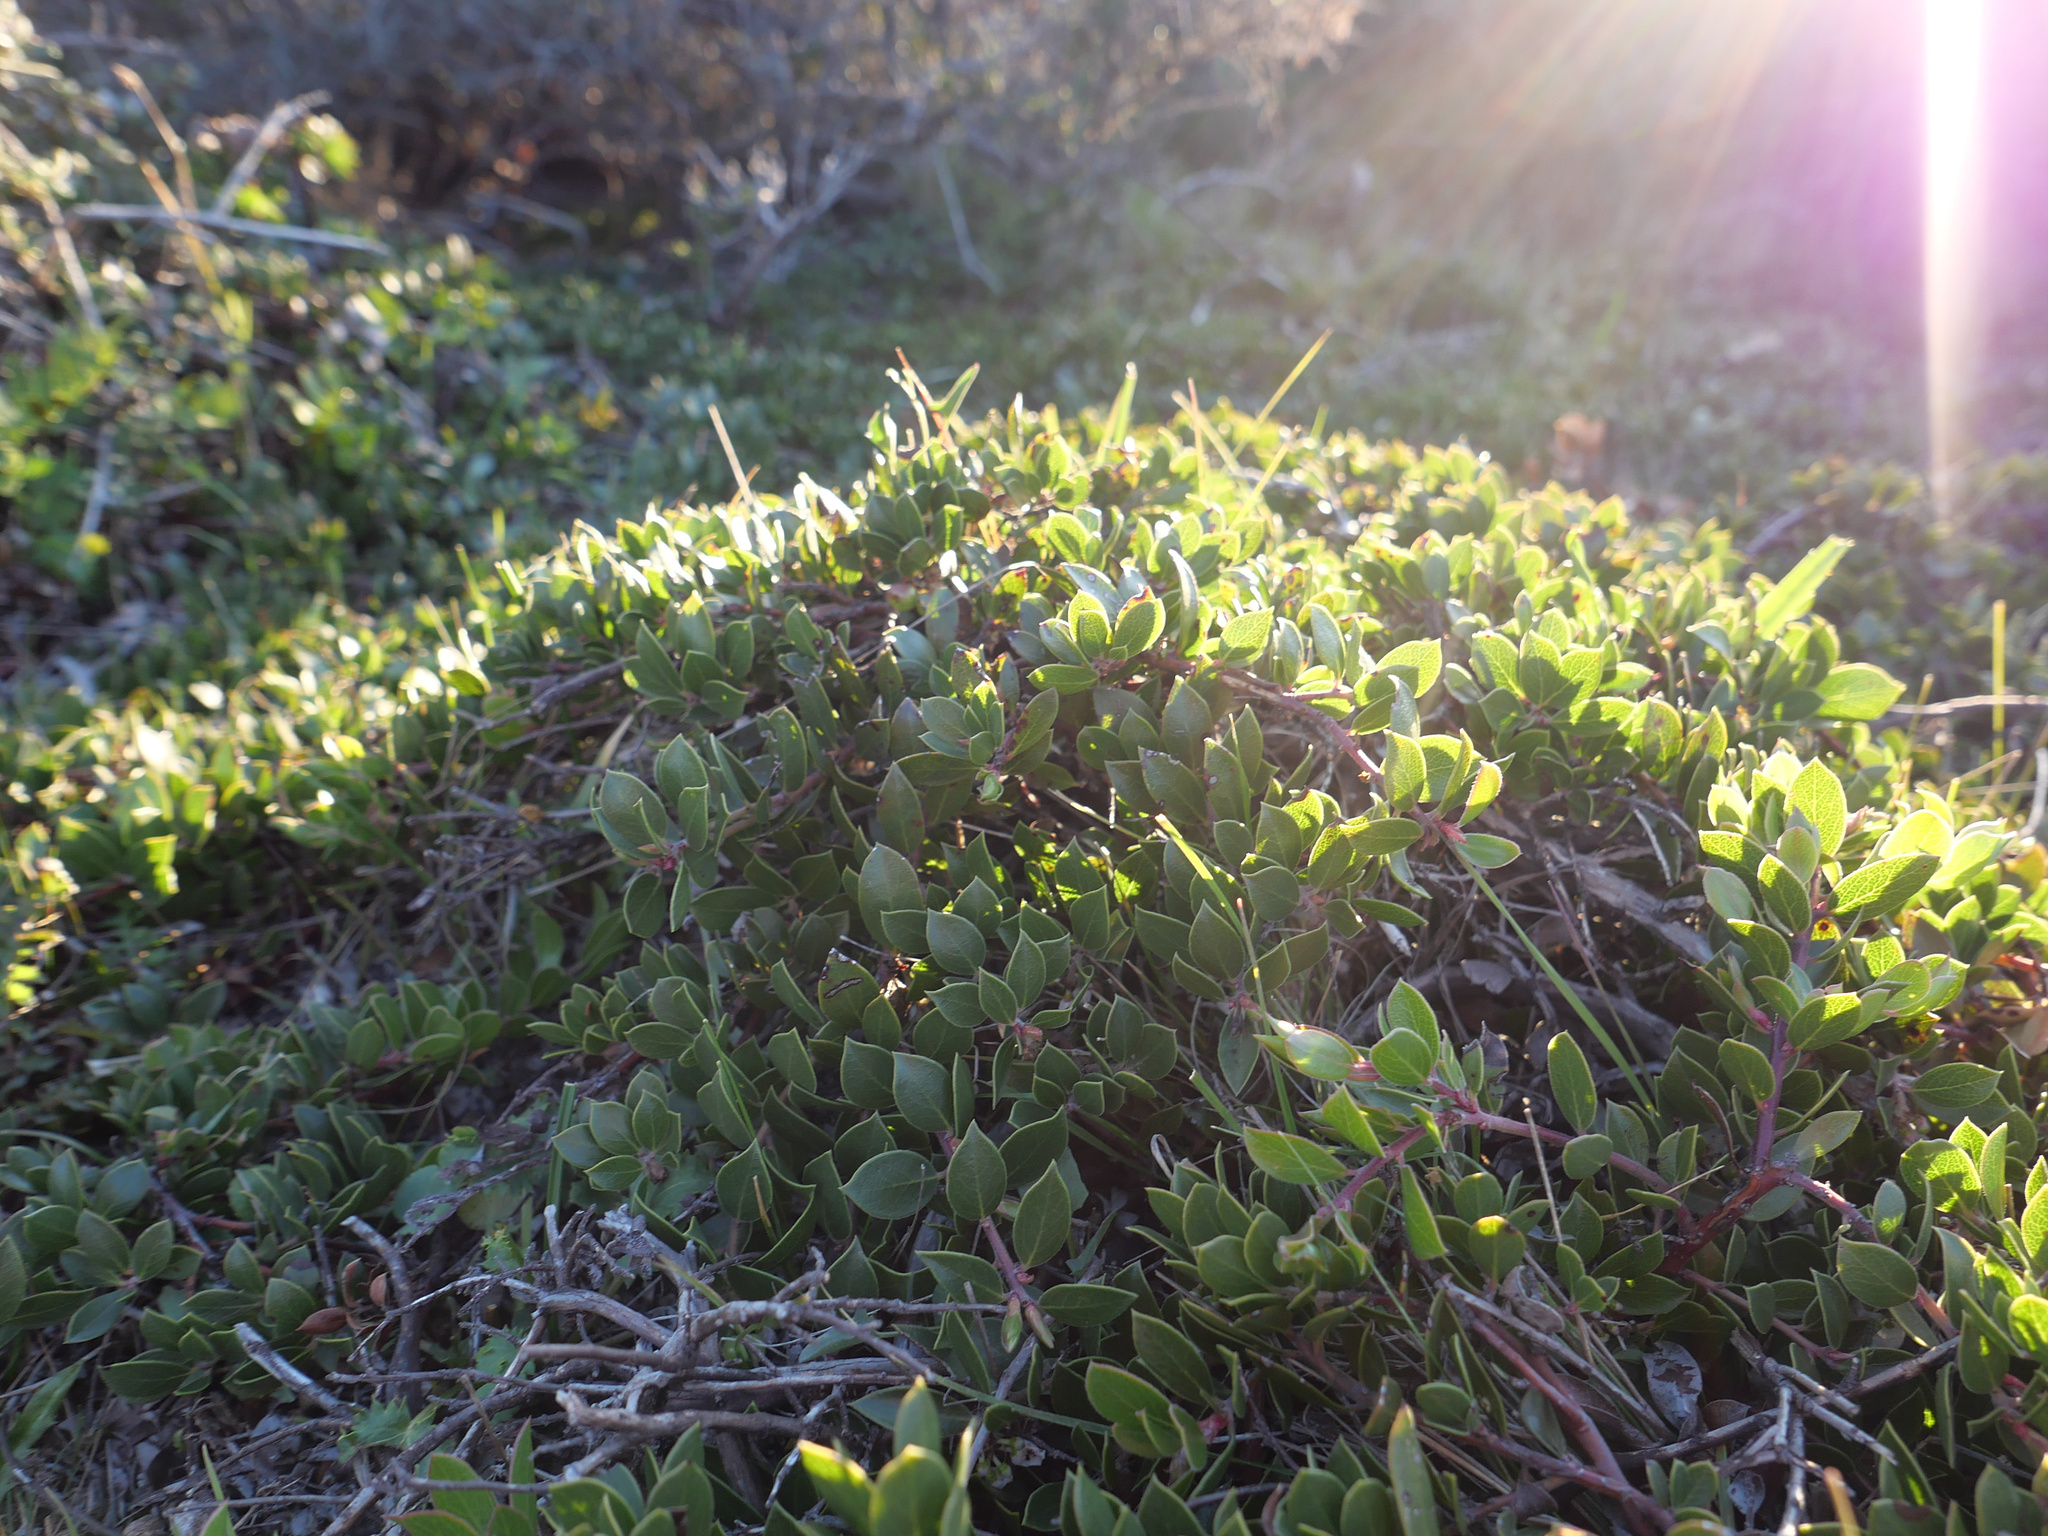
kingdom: Plantae
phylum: Tracheophyta
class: Magnoliopsida
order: Ericales
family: Ericaceae
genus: Arctostaphylos
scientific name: Arctostaphylos hookeri
